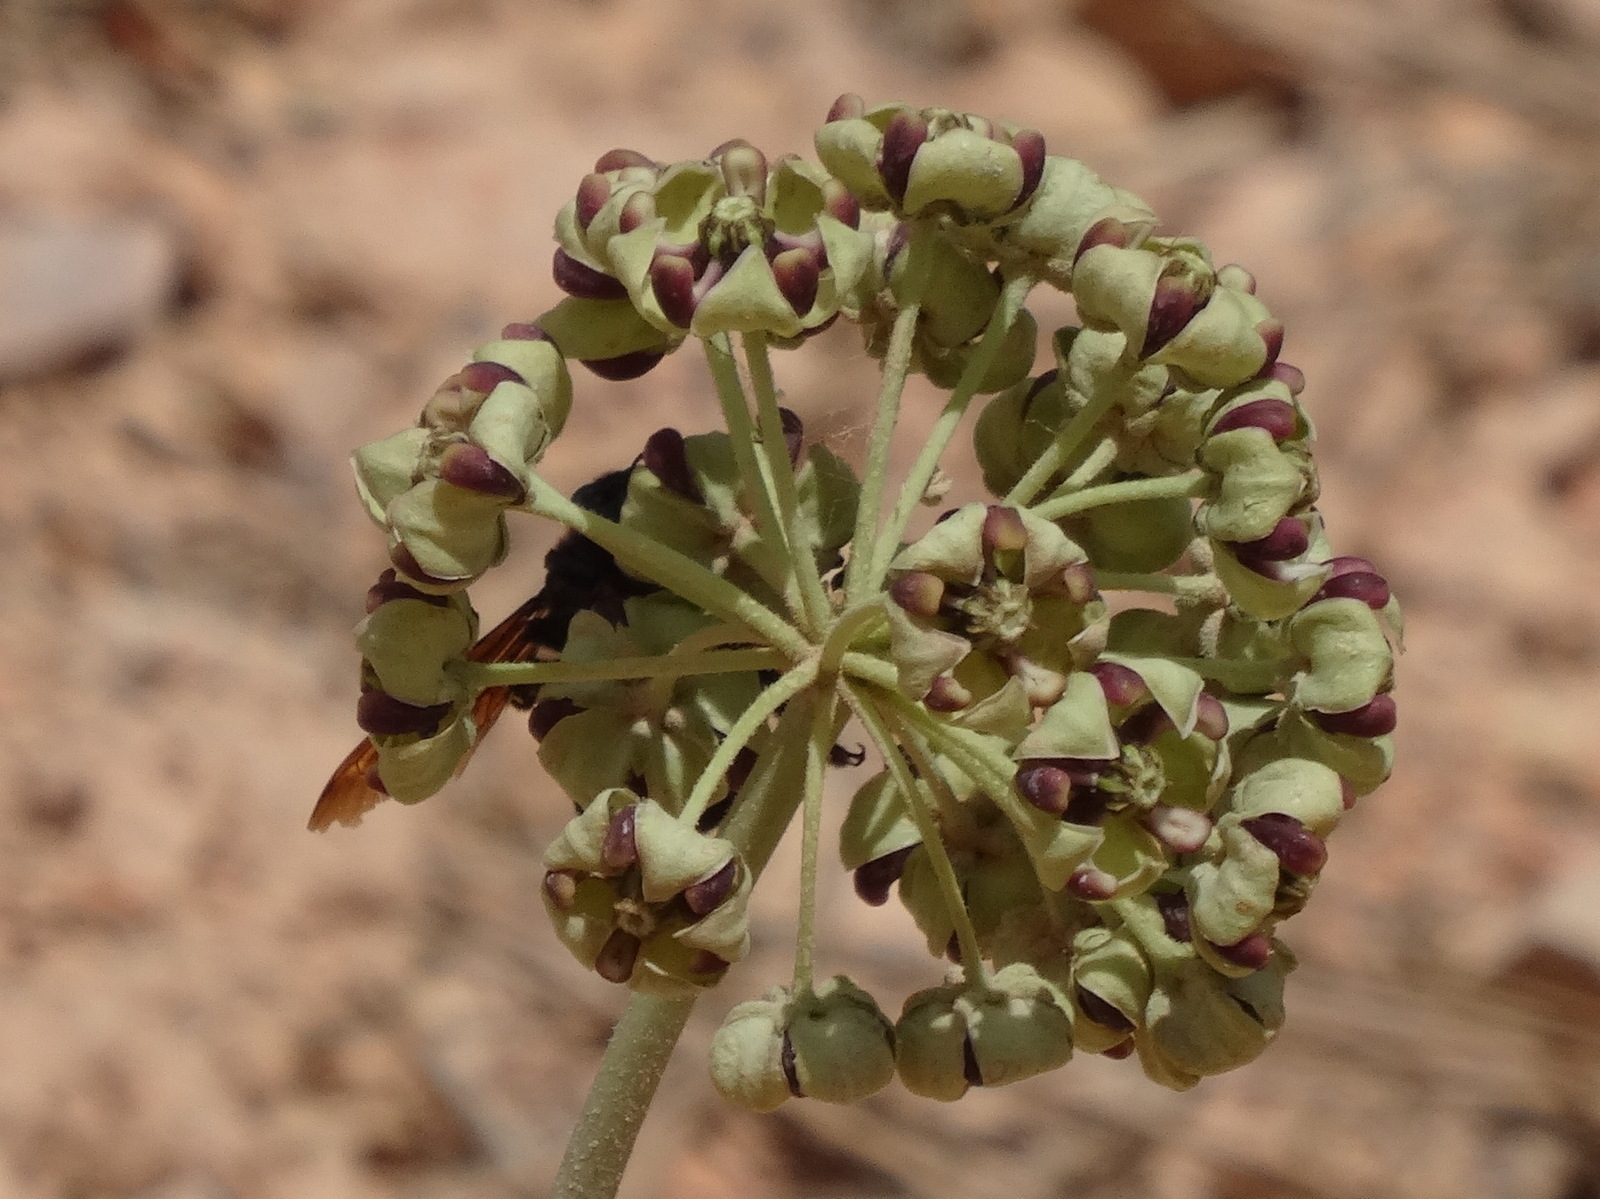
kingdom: Plantae
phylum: Tracheophyta
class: Magnoliopsida
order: Gentianales
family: Apocynaceae
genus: Asclepias
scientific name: Asclepias asperula
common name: Antelope horns
